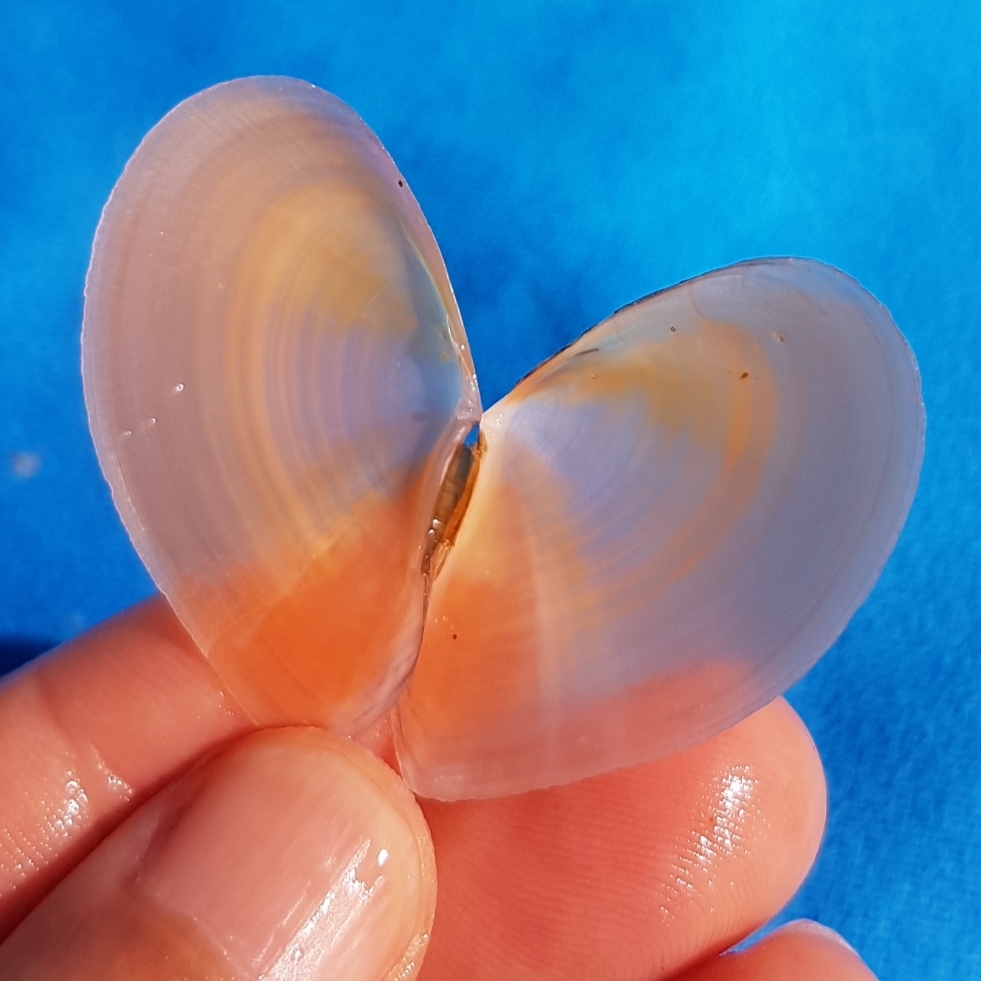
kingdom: Animalia
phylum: Mollusca
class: Bivalvia
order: Cardiida
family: Tellinidae
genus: Bosemprella
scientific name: Bosemprella incarnata
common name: Red tellin
